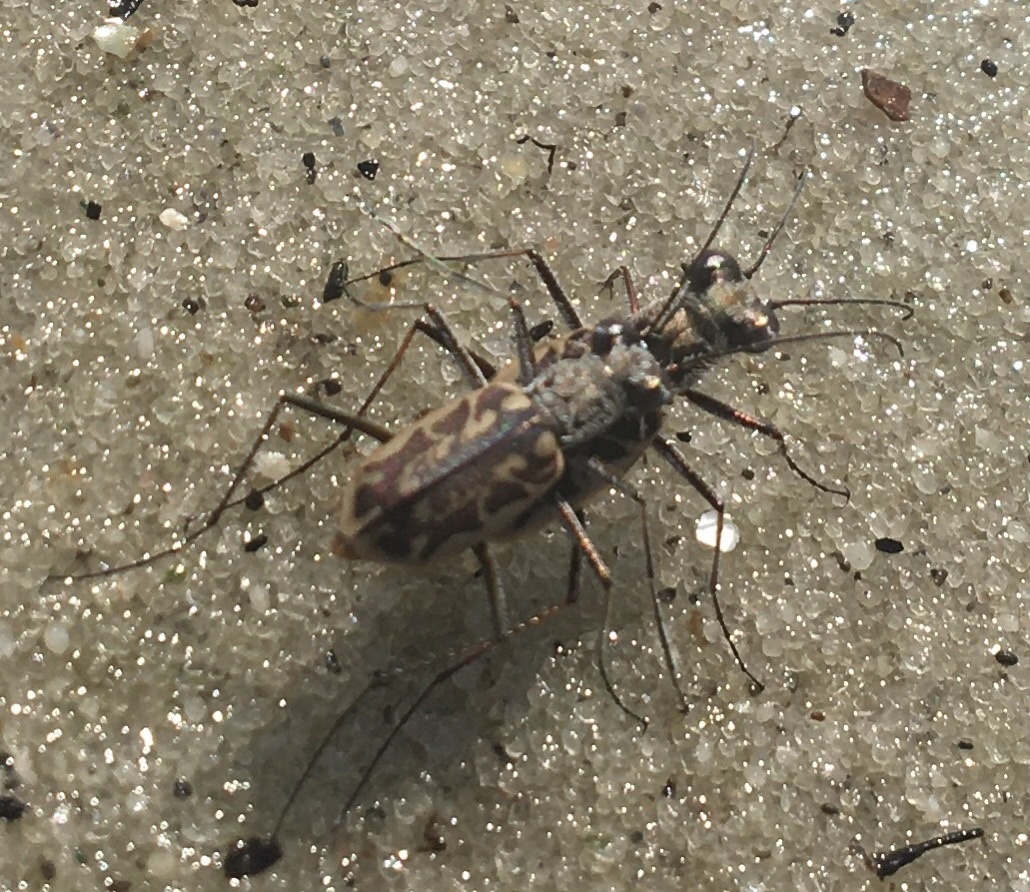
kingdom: Animalia
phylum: Arthropoda
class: Insecta
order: Coleoptera
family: Carabidae
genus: Ellipsoptera
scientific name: Ellipsoptera hamata
